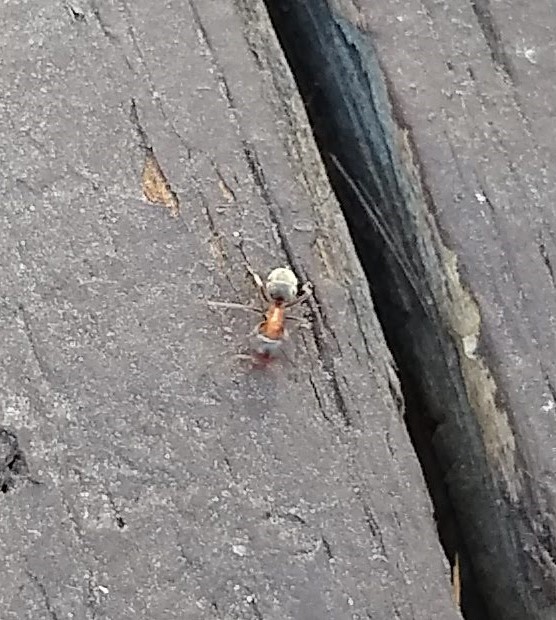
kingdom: Animalia
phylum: Arthropoda
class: Insecta
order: Hymenoptera
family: Formicidae
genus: Liometopum
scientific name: Liometopum occidentale
